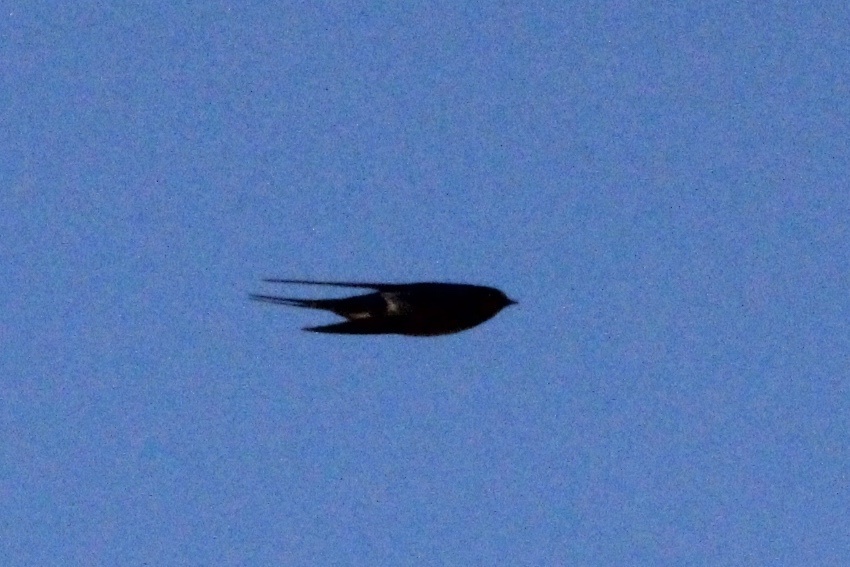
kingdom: Animalia
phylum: Chordata
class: Aves
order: Passeriformes
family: Hirundinidae
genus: Hirundo
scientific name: Hirundo rustica
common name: Barn swallow
